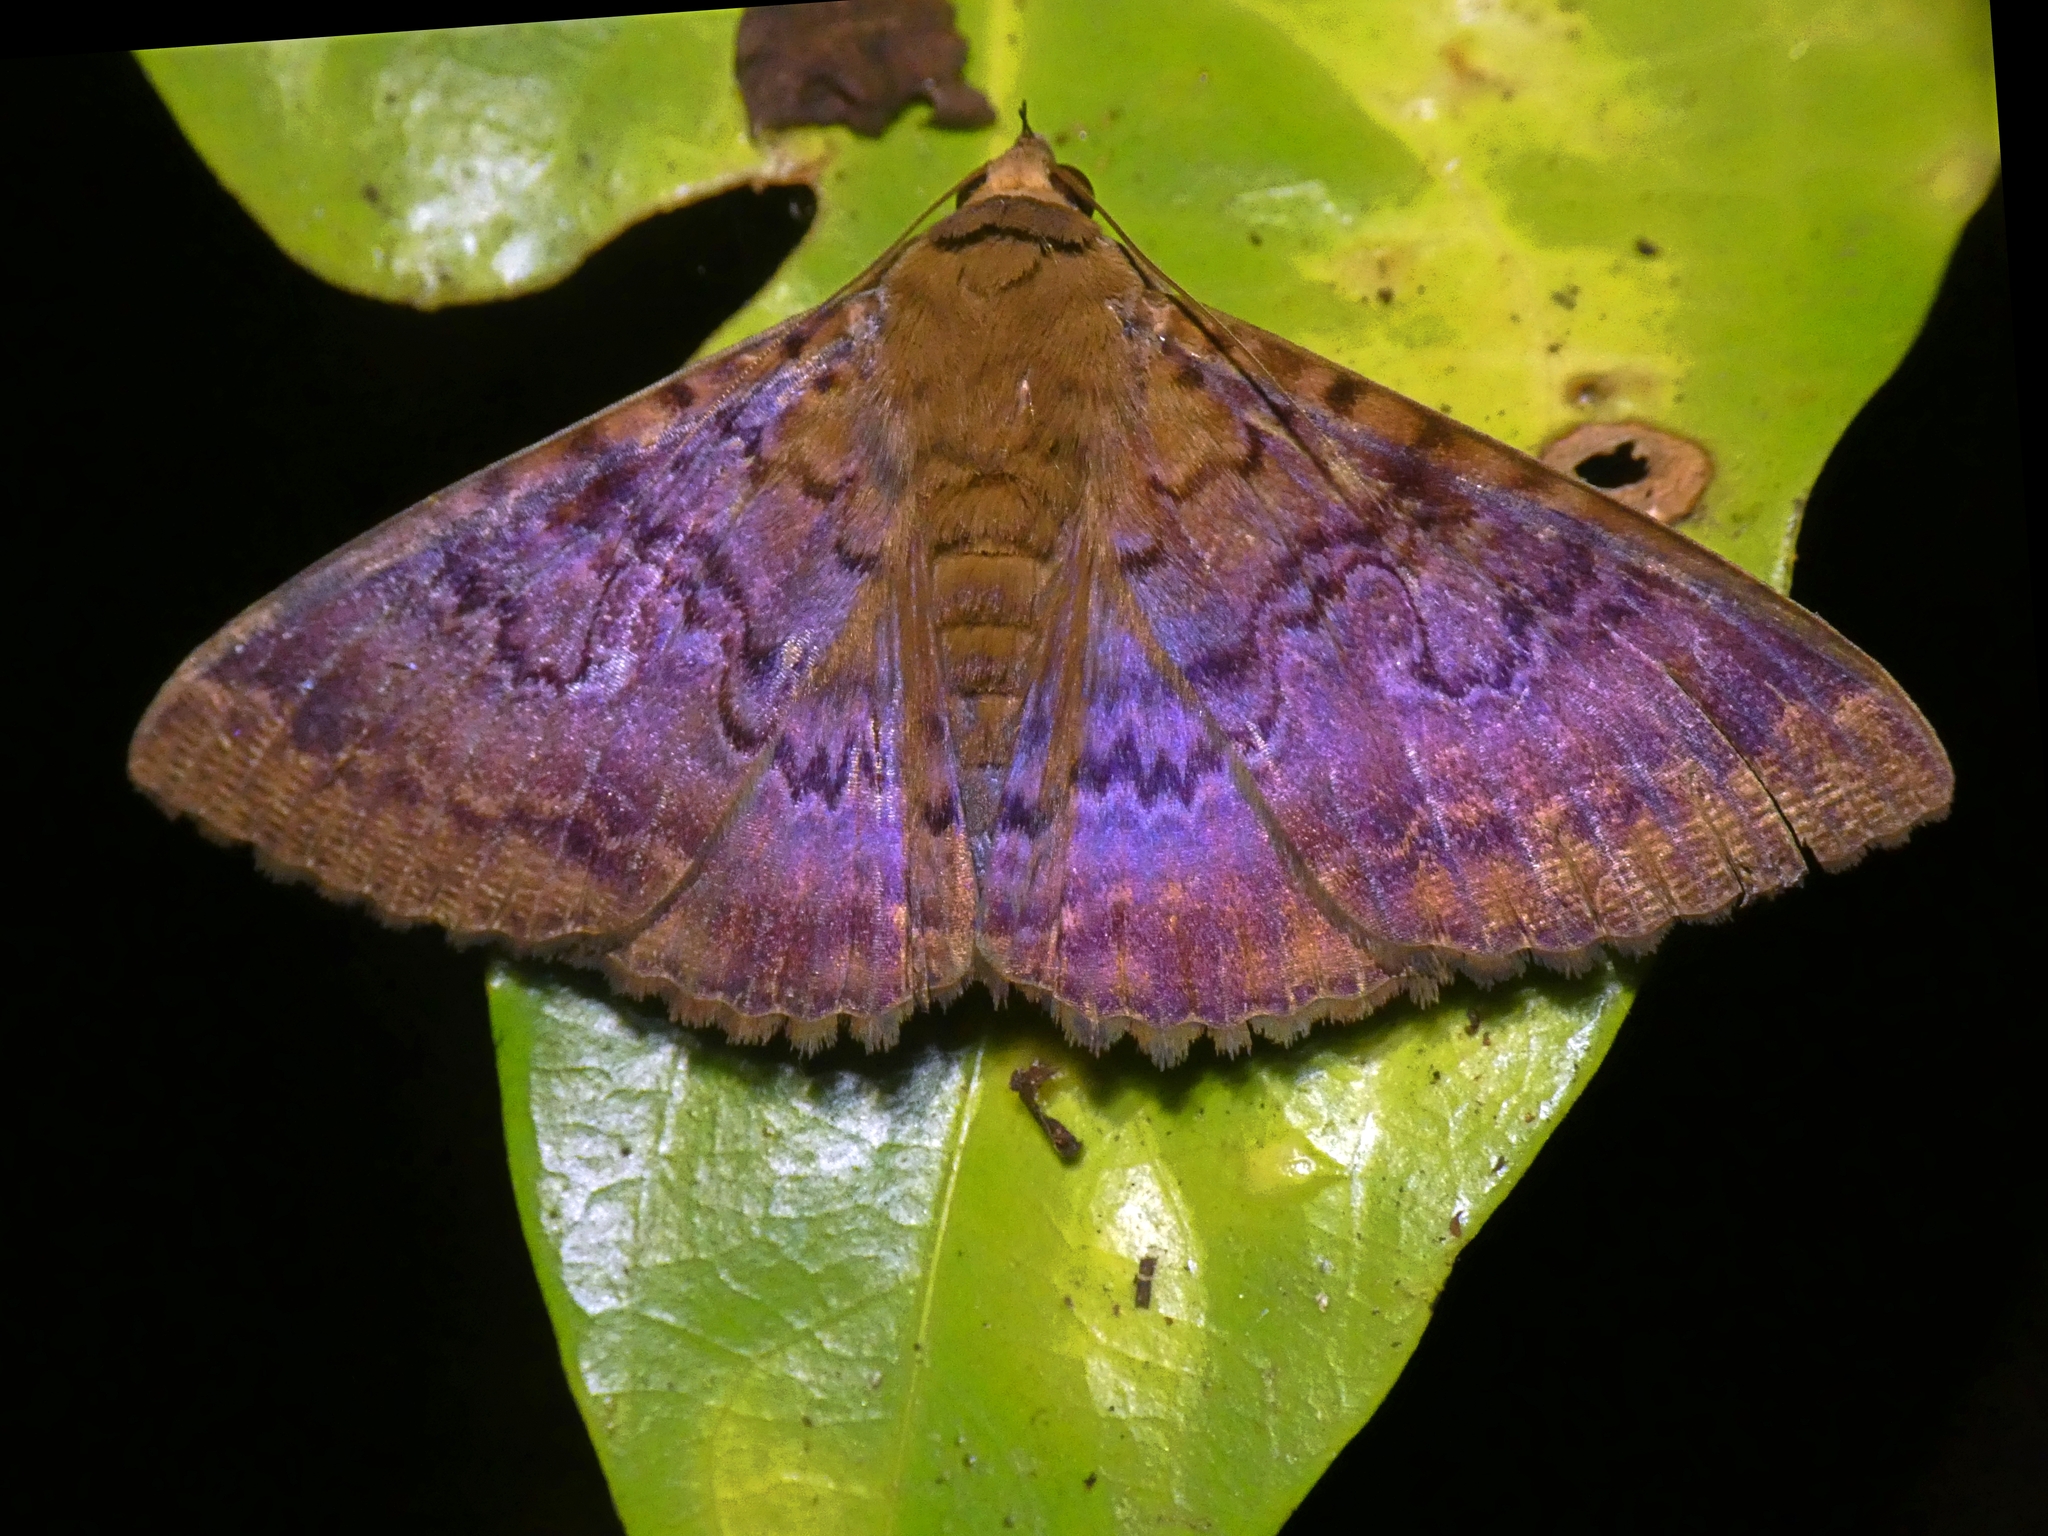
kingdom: Animalia
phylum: Arthropoda
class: Insecta
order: Lepidoptera
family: Erebidae
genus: Speiredonia
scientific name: Speiredonia mutabilis
